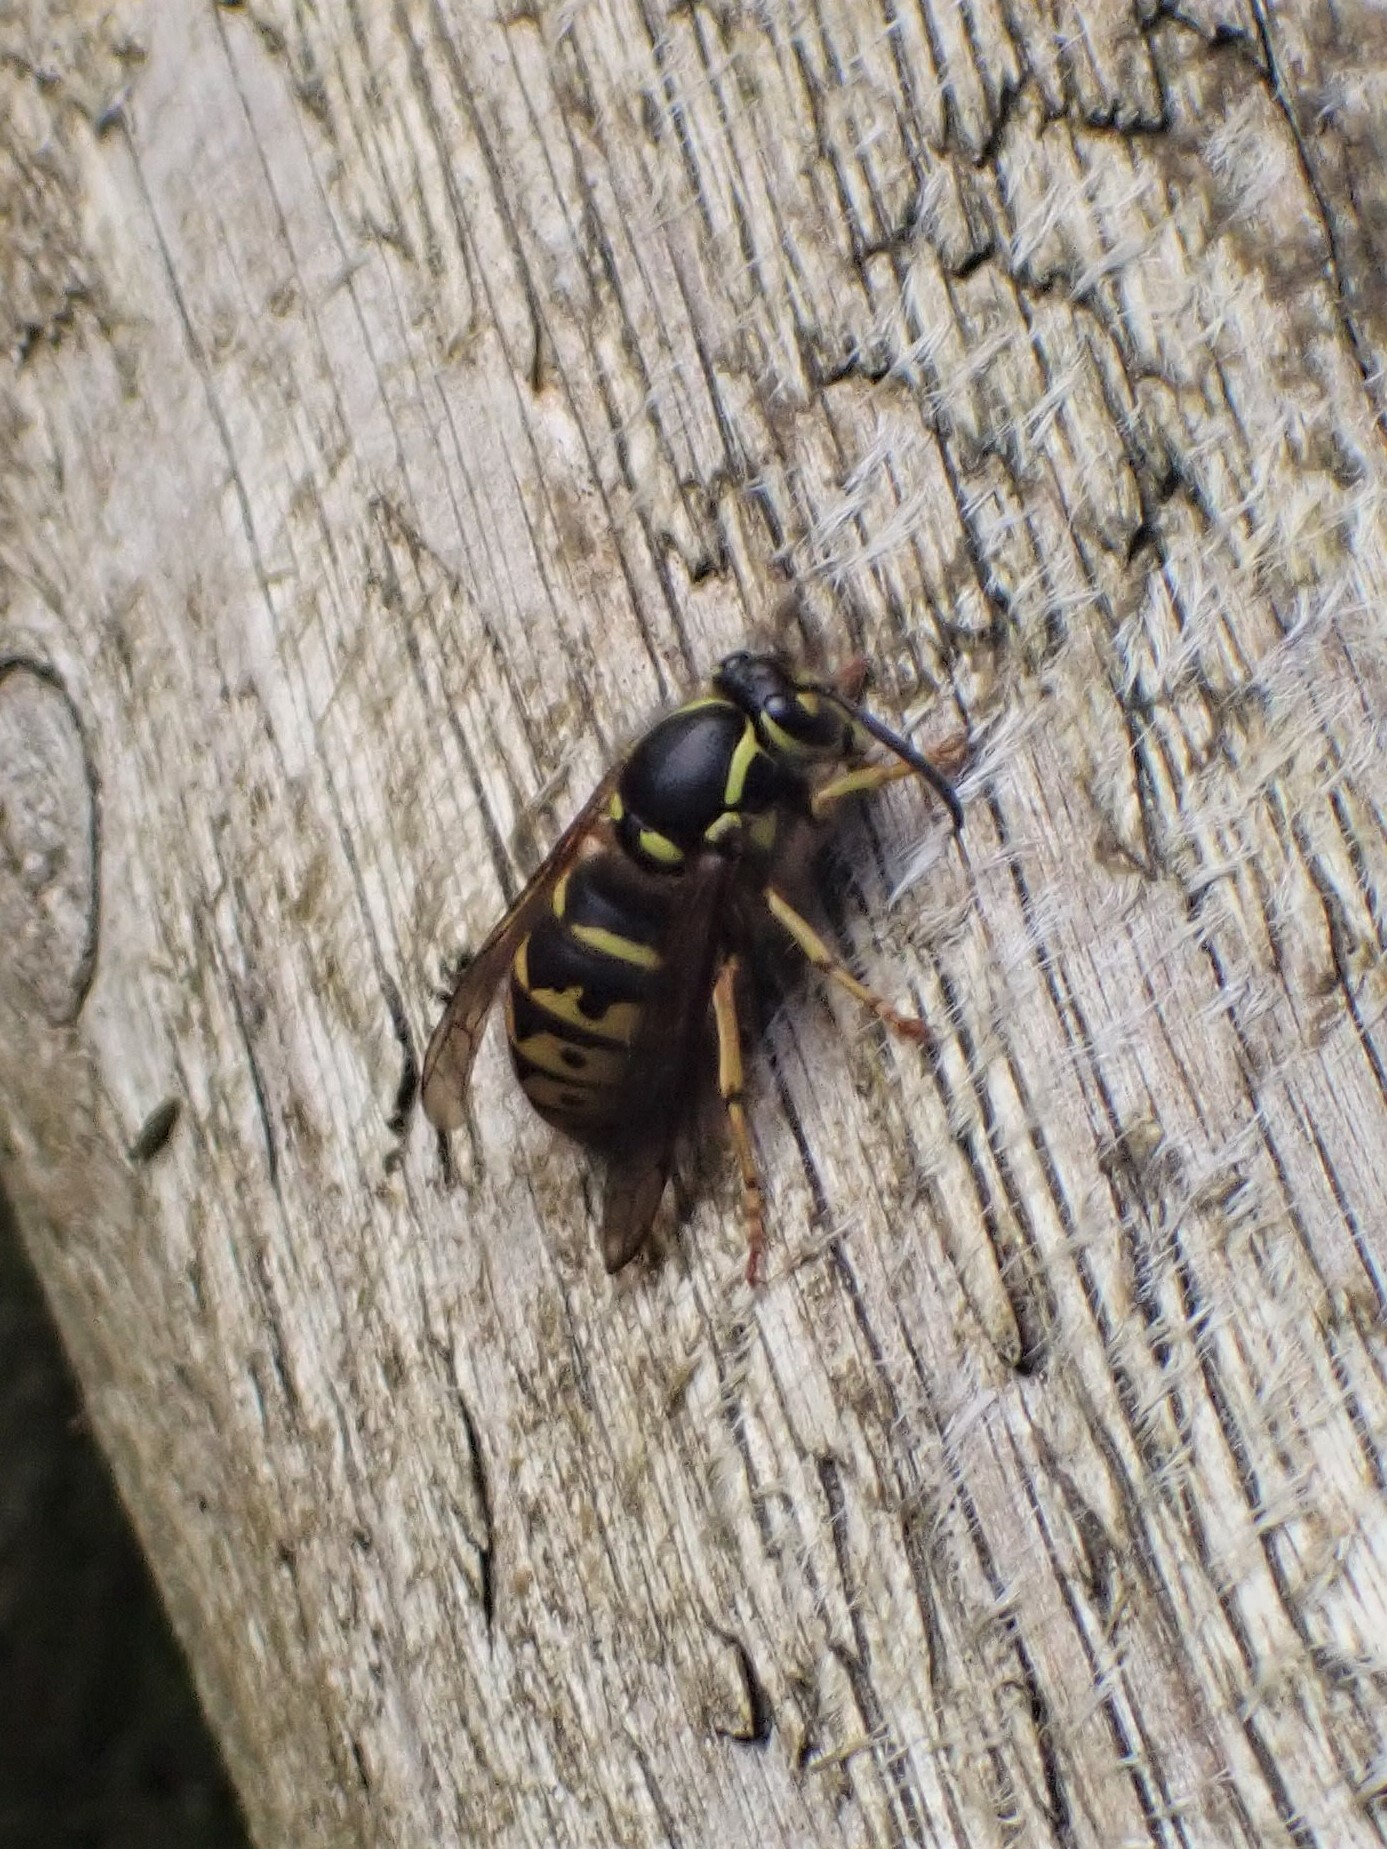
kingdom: Animalia
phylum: Arthropoda
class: Insecta
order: Hymenoptera
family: Vespidae
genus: Dolichovespula
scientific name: Dolichovespula arenaria
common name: Aerial yellowjacket
